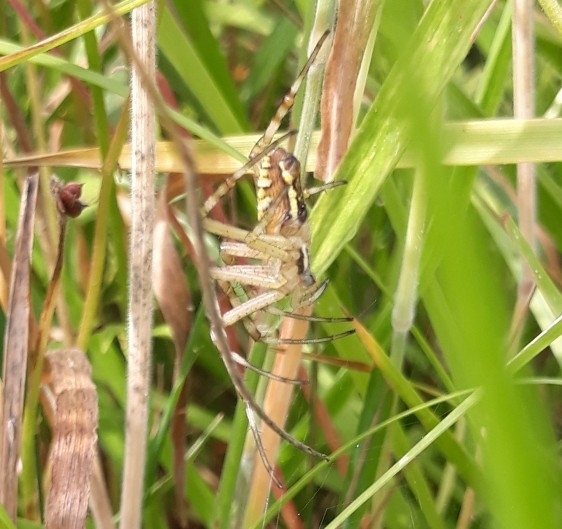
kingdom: Animalia
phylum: Arthropoda
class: Arachnida
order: Araneae
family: Araneidae
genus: Argiope
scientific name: Argiope bruennichi
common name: Wasp spider
